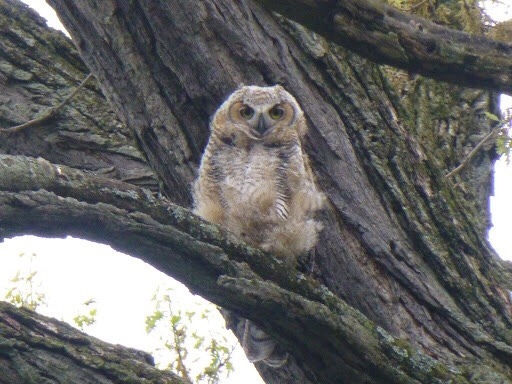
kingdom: Animalia
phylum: Chordata
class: Aves
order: Strigiformes
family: Strigidae
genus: Bubo
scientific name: Bubo virginianus
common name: Great horned owl
